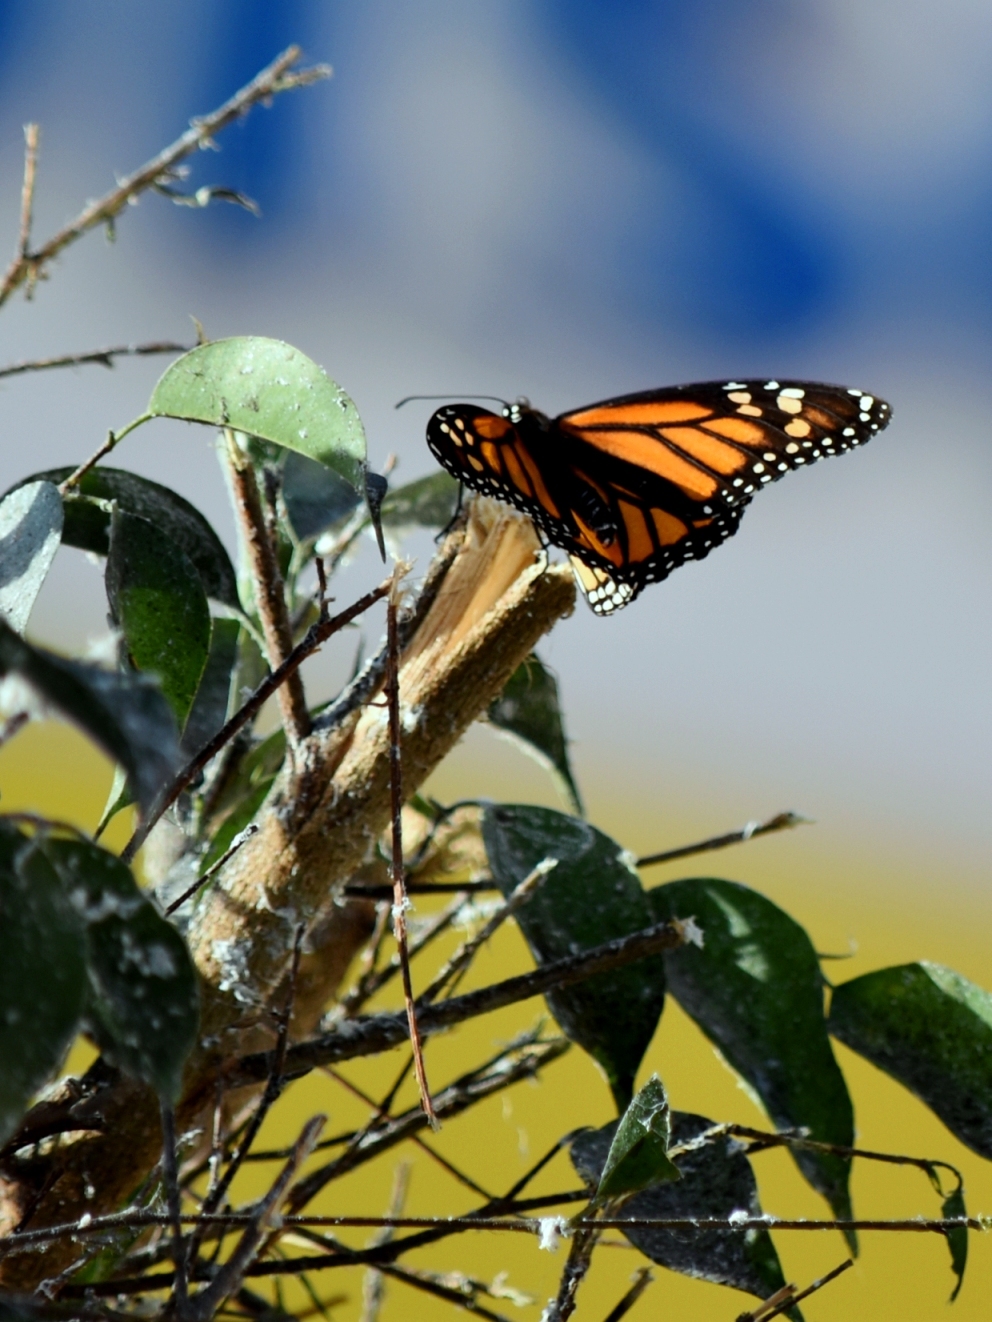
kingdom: Animalia
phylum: Arthropoda
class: Insecta
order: Lepidoptera
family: Nymphalidae
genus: Danaus
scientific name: Danaus plexippus
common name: Monarch
